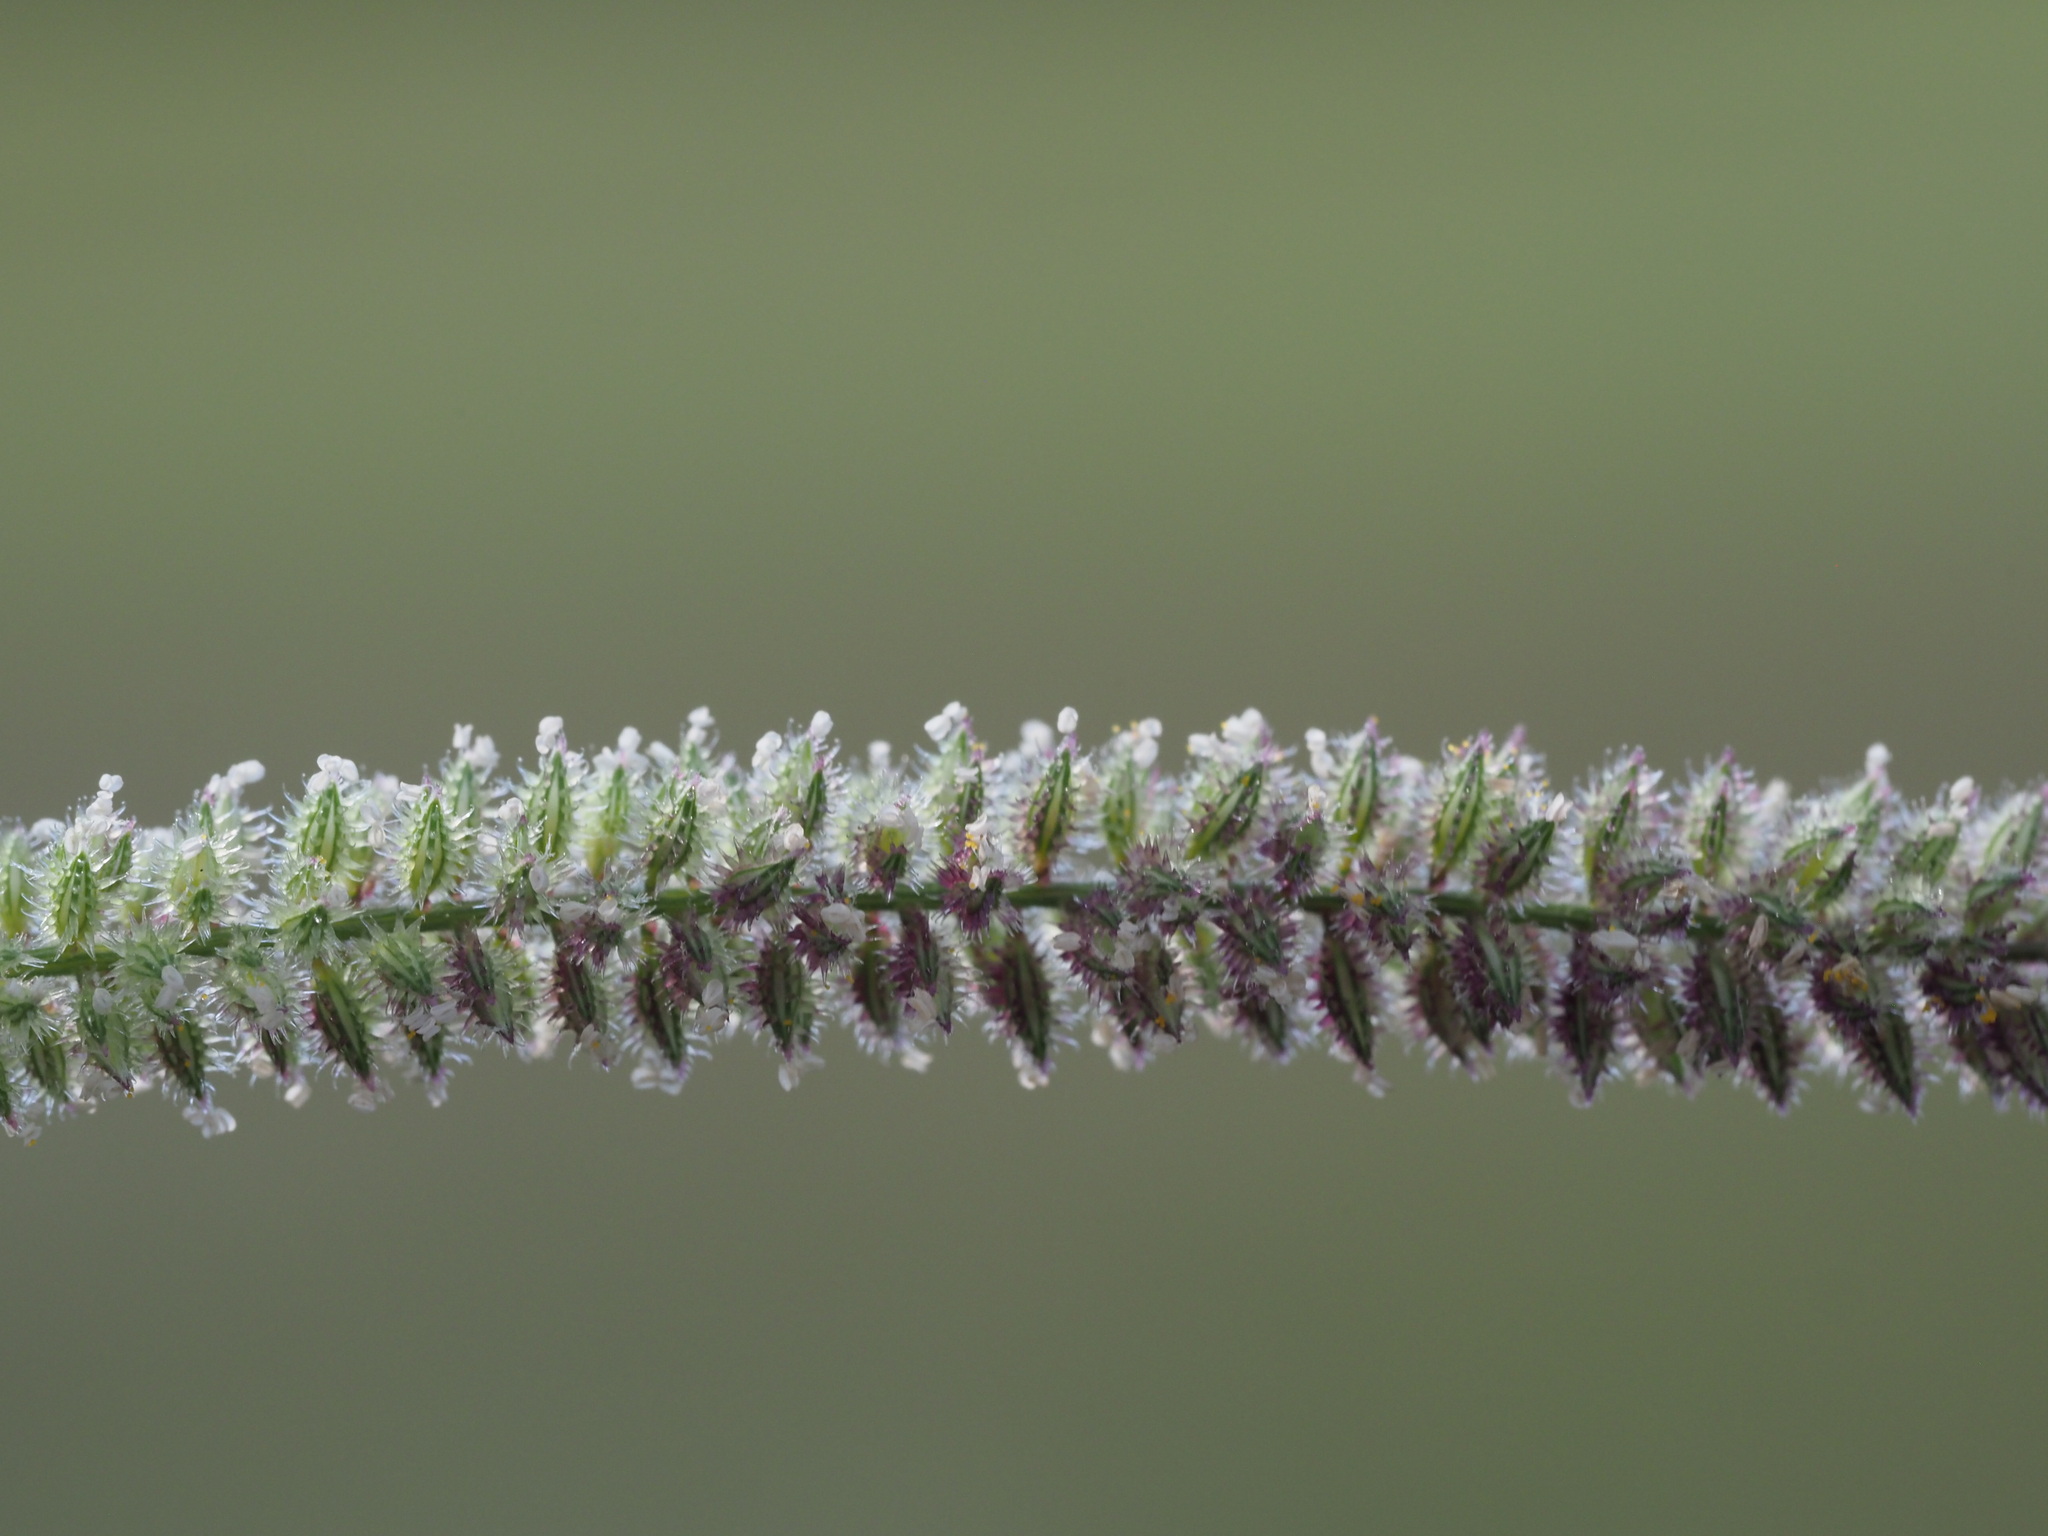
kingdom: Plantae
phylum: Tracheophyta
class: Liliopsida
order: Poales
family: Poaceae
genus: Tragus
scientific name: Tragus berteronianus
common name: African bur-grass
